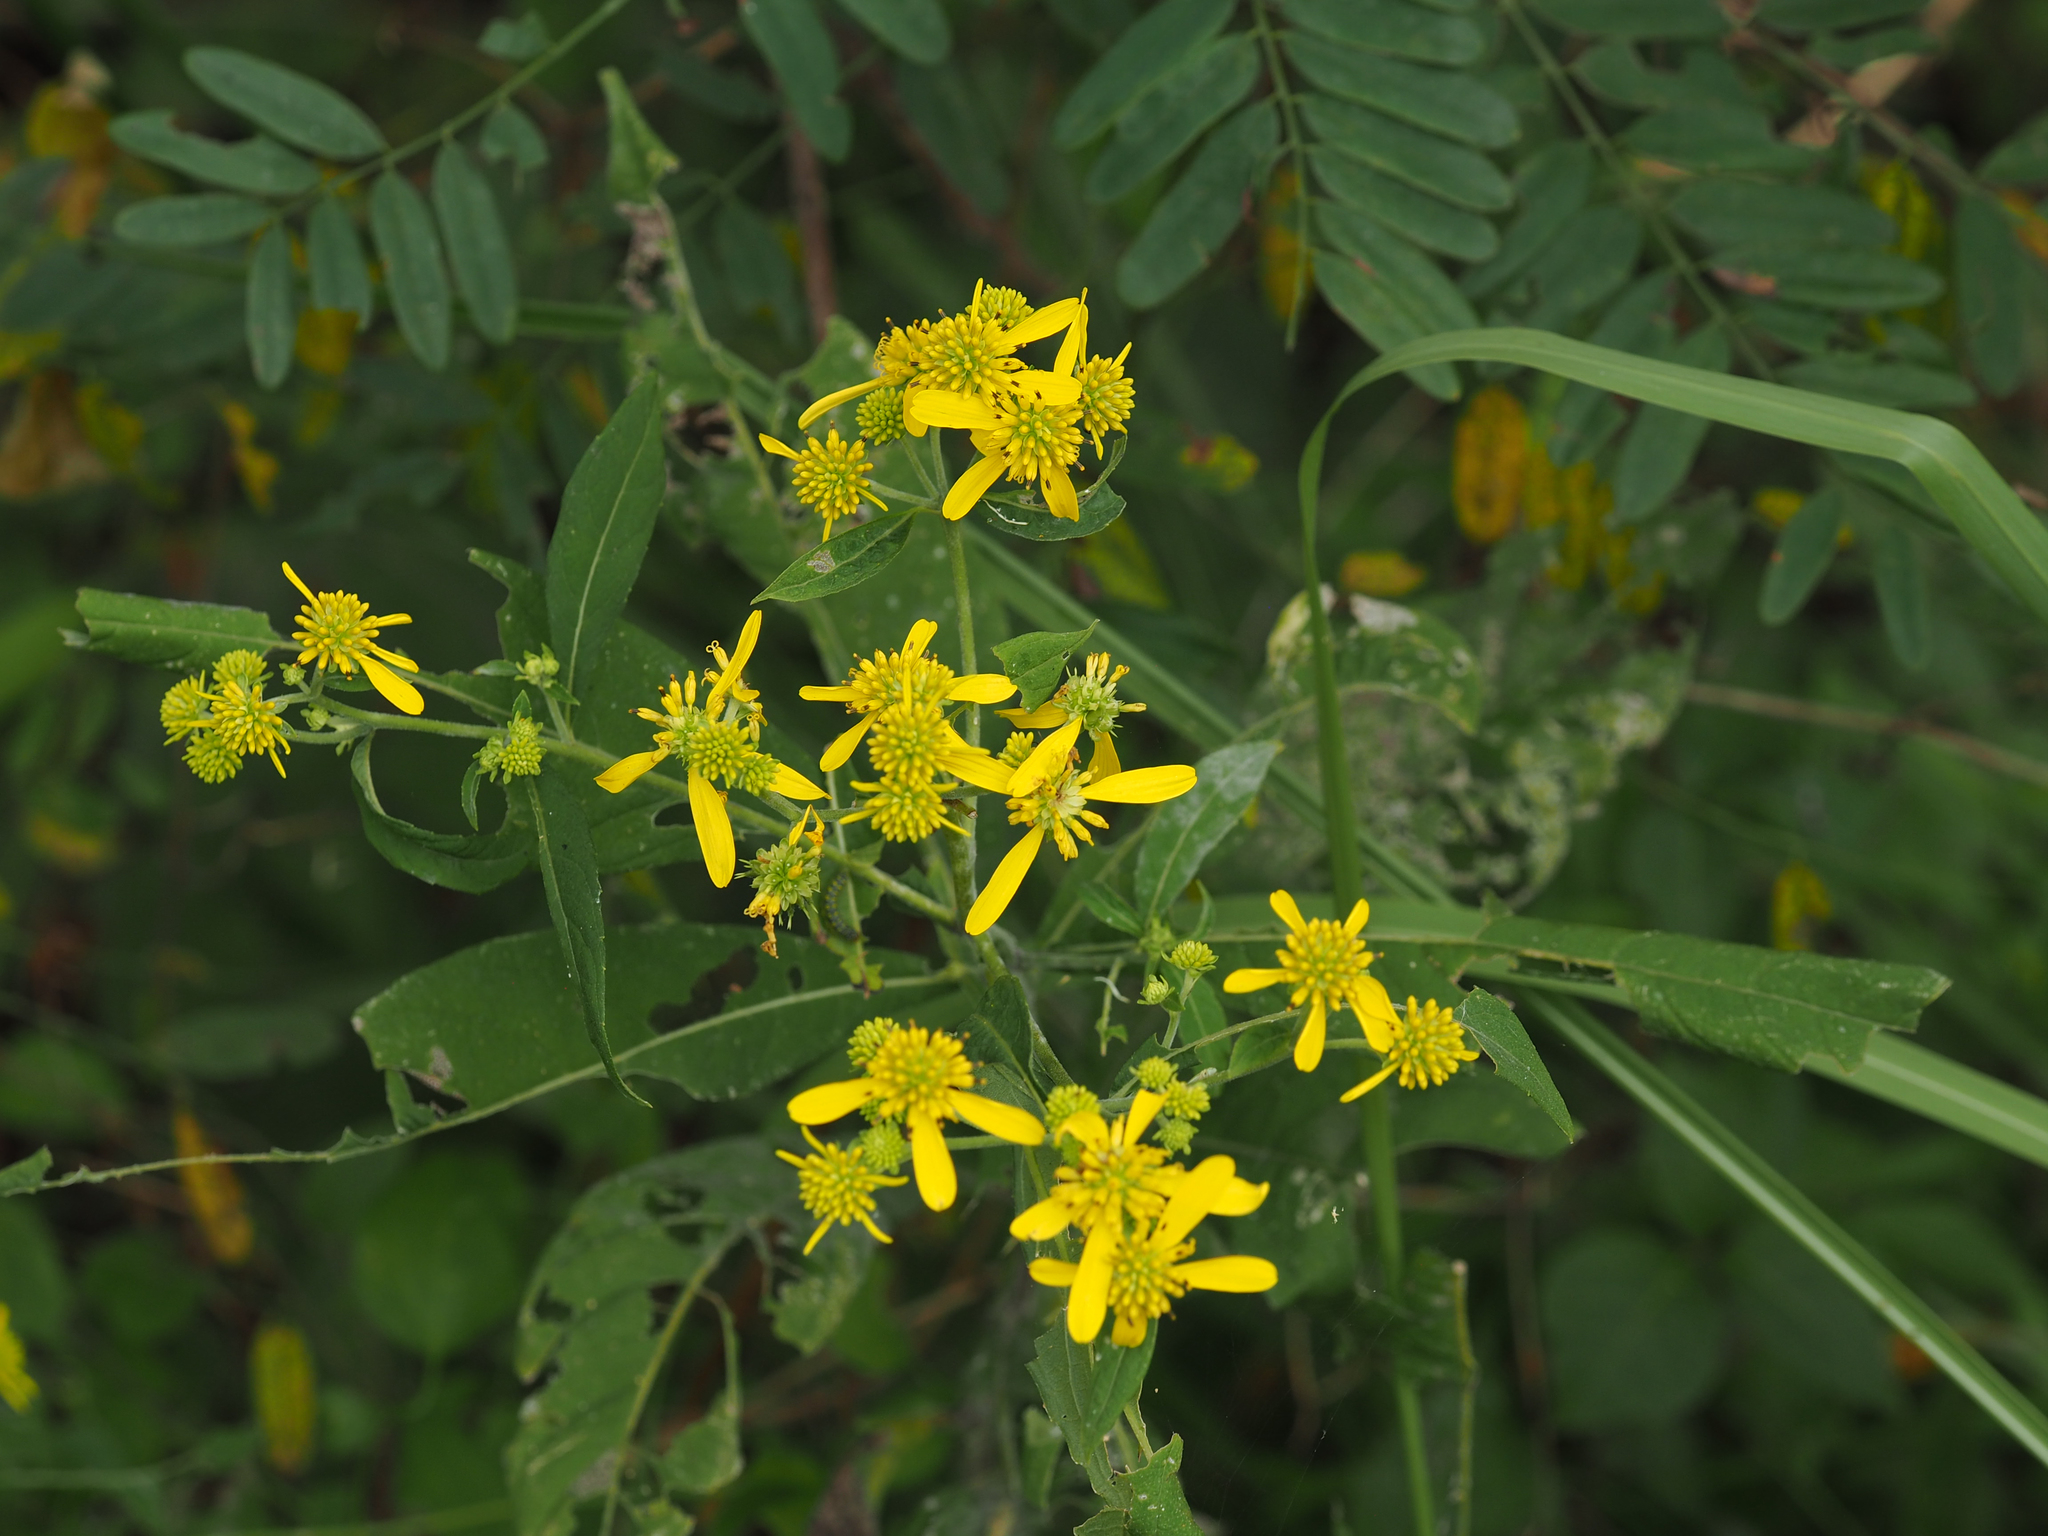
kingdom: Plantae
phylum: Tracheophyta
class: Magnoliopsida
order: Asterales
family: Asteraceae
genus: Verbesina
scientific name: Verbesina alternifolia
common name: Wingstem
